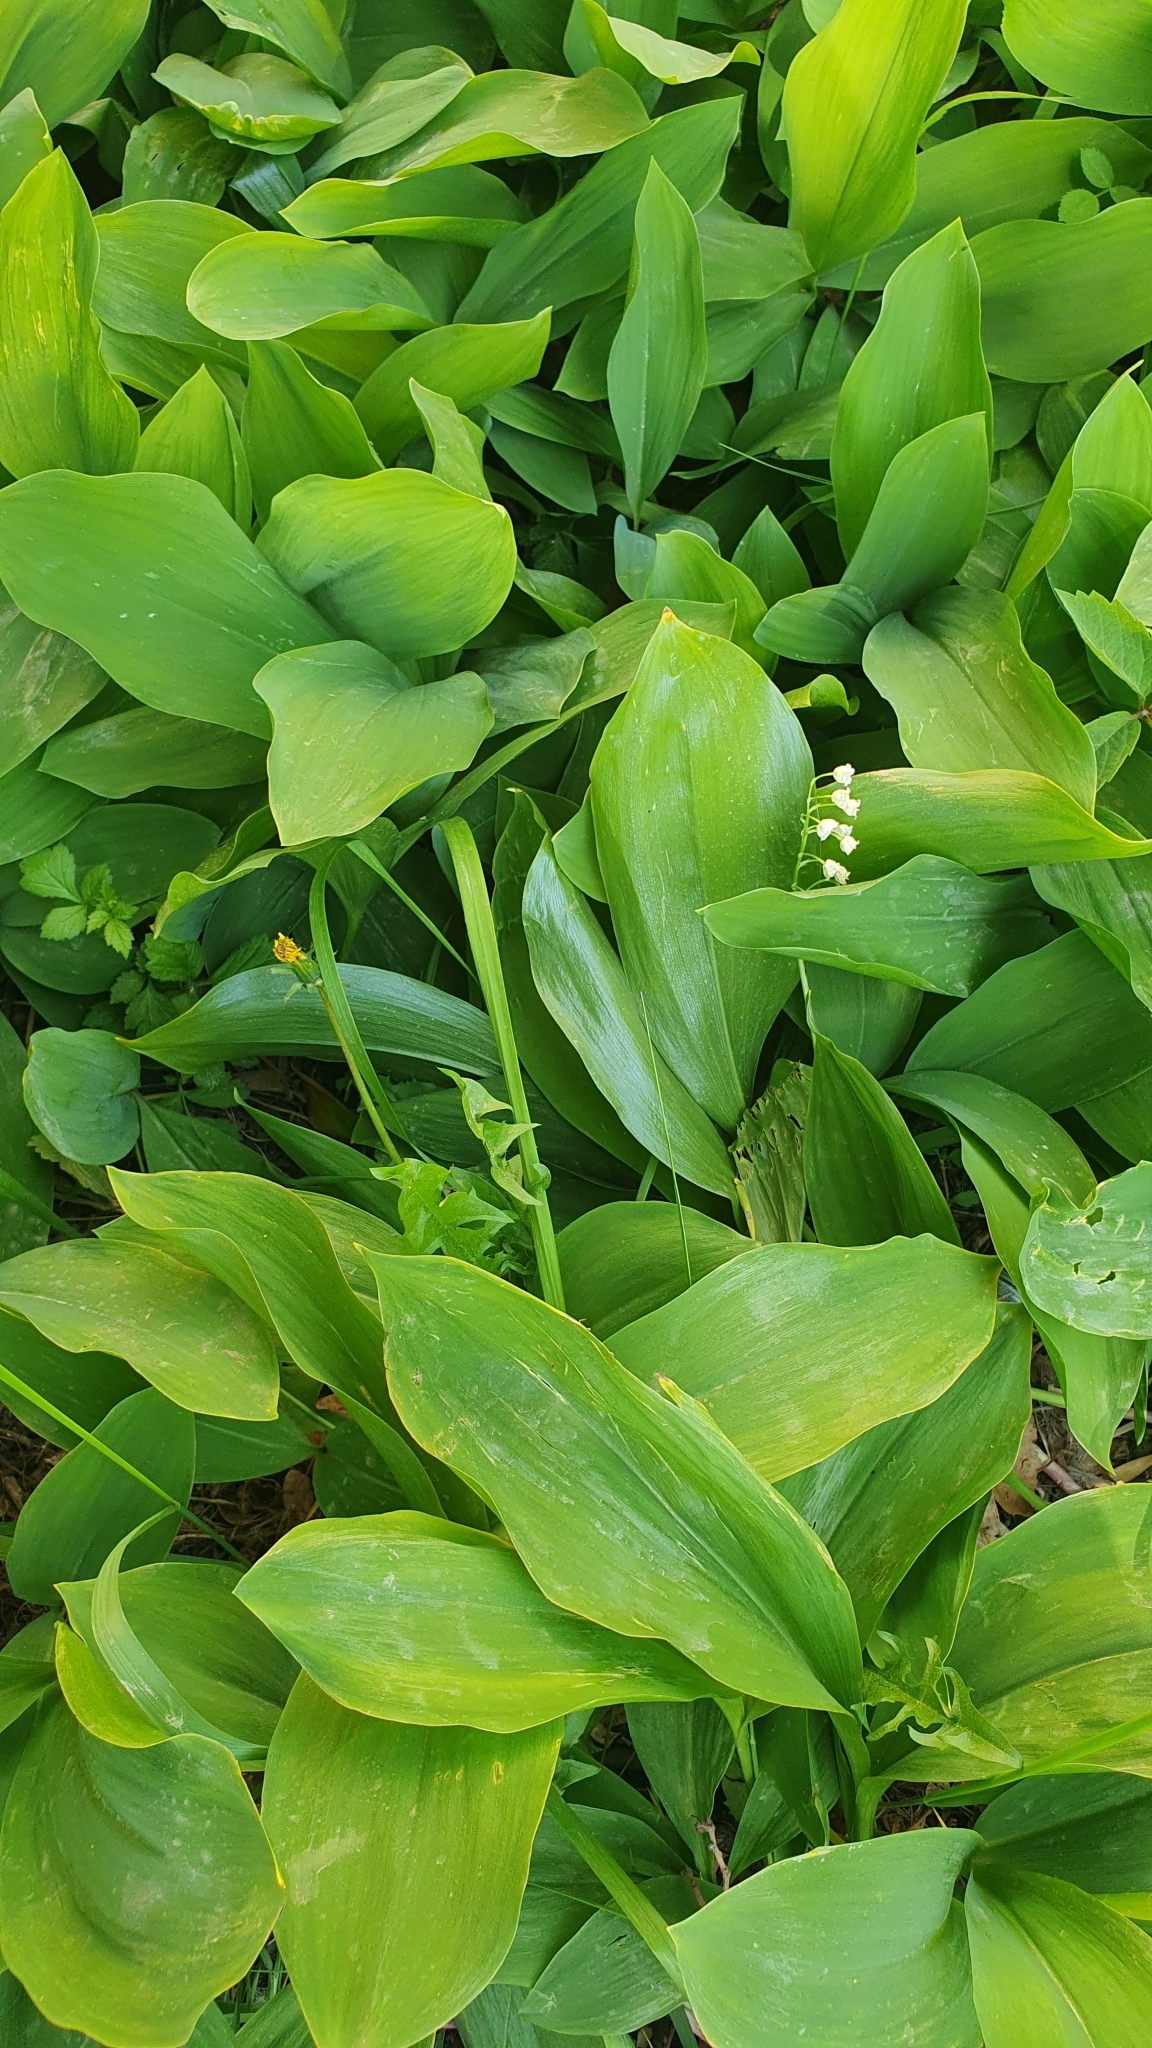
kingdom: Plantae
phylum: Tracheophyta
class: Liliopsida
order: Asparagales
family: Asparagaceae
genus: Convallaria
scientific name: Convallaria majalis
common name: Lily-of-the-valley
